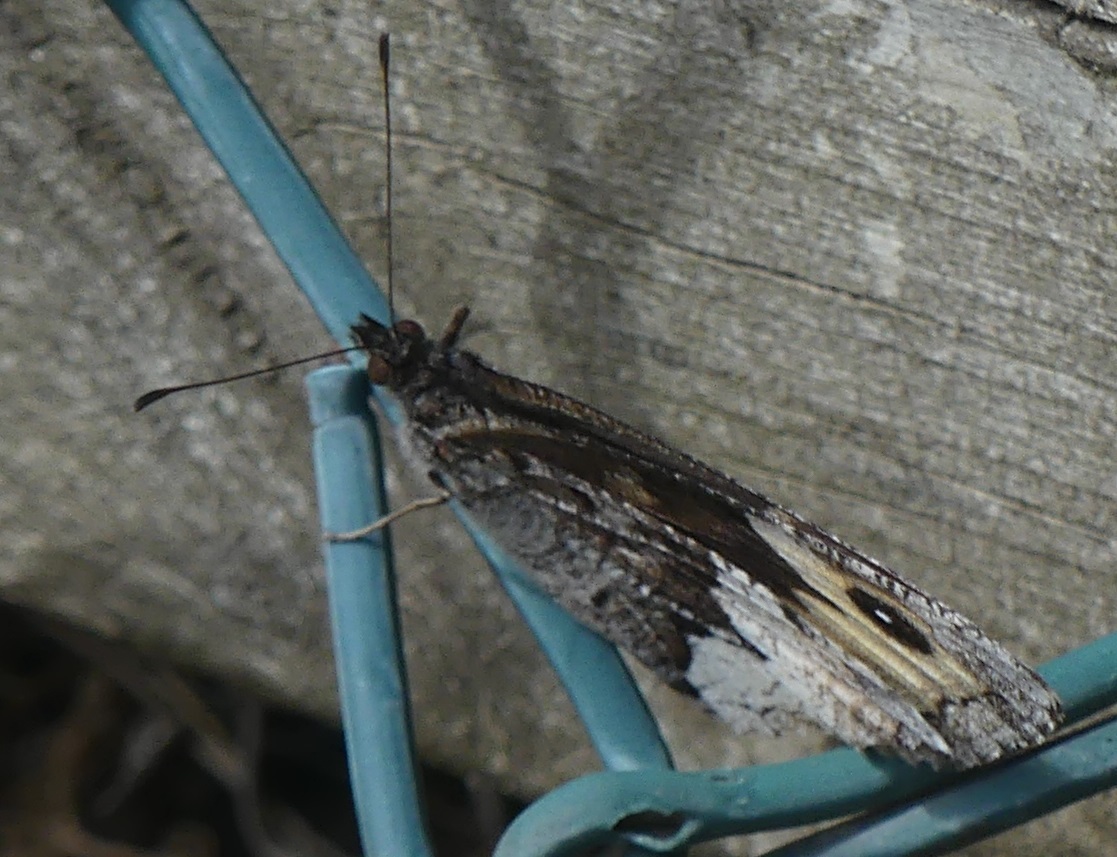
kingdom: Animalia
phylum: Arthropoda
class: Insecta
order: Lepidoptera
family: Nymphalidae
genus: Hipparchia
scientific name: Hipparchia hermione
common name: Rock grayling
